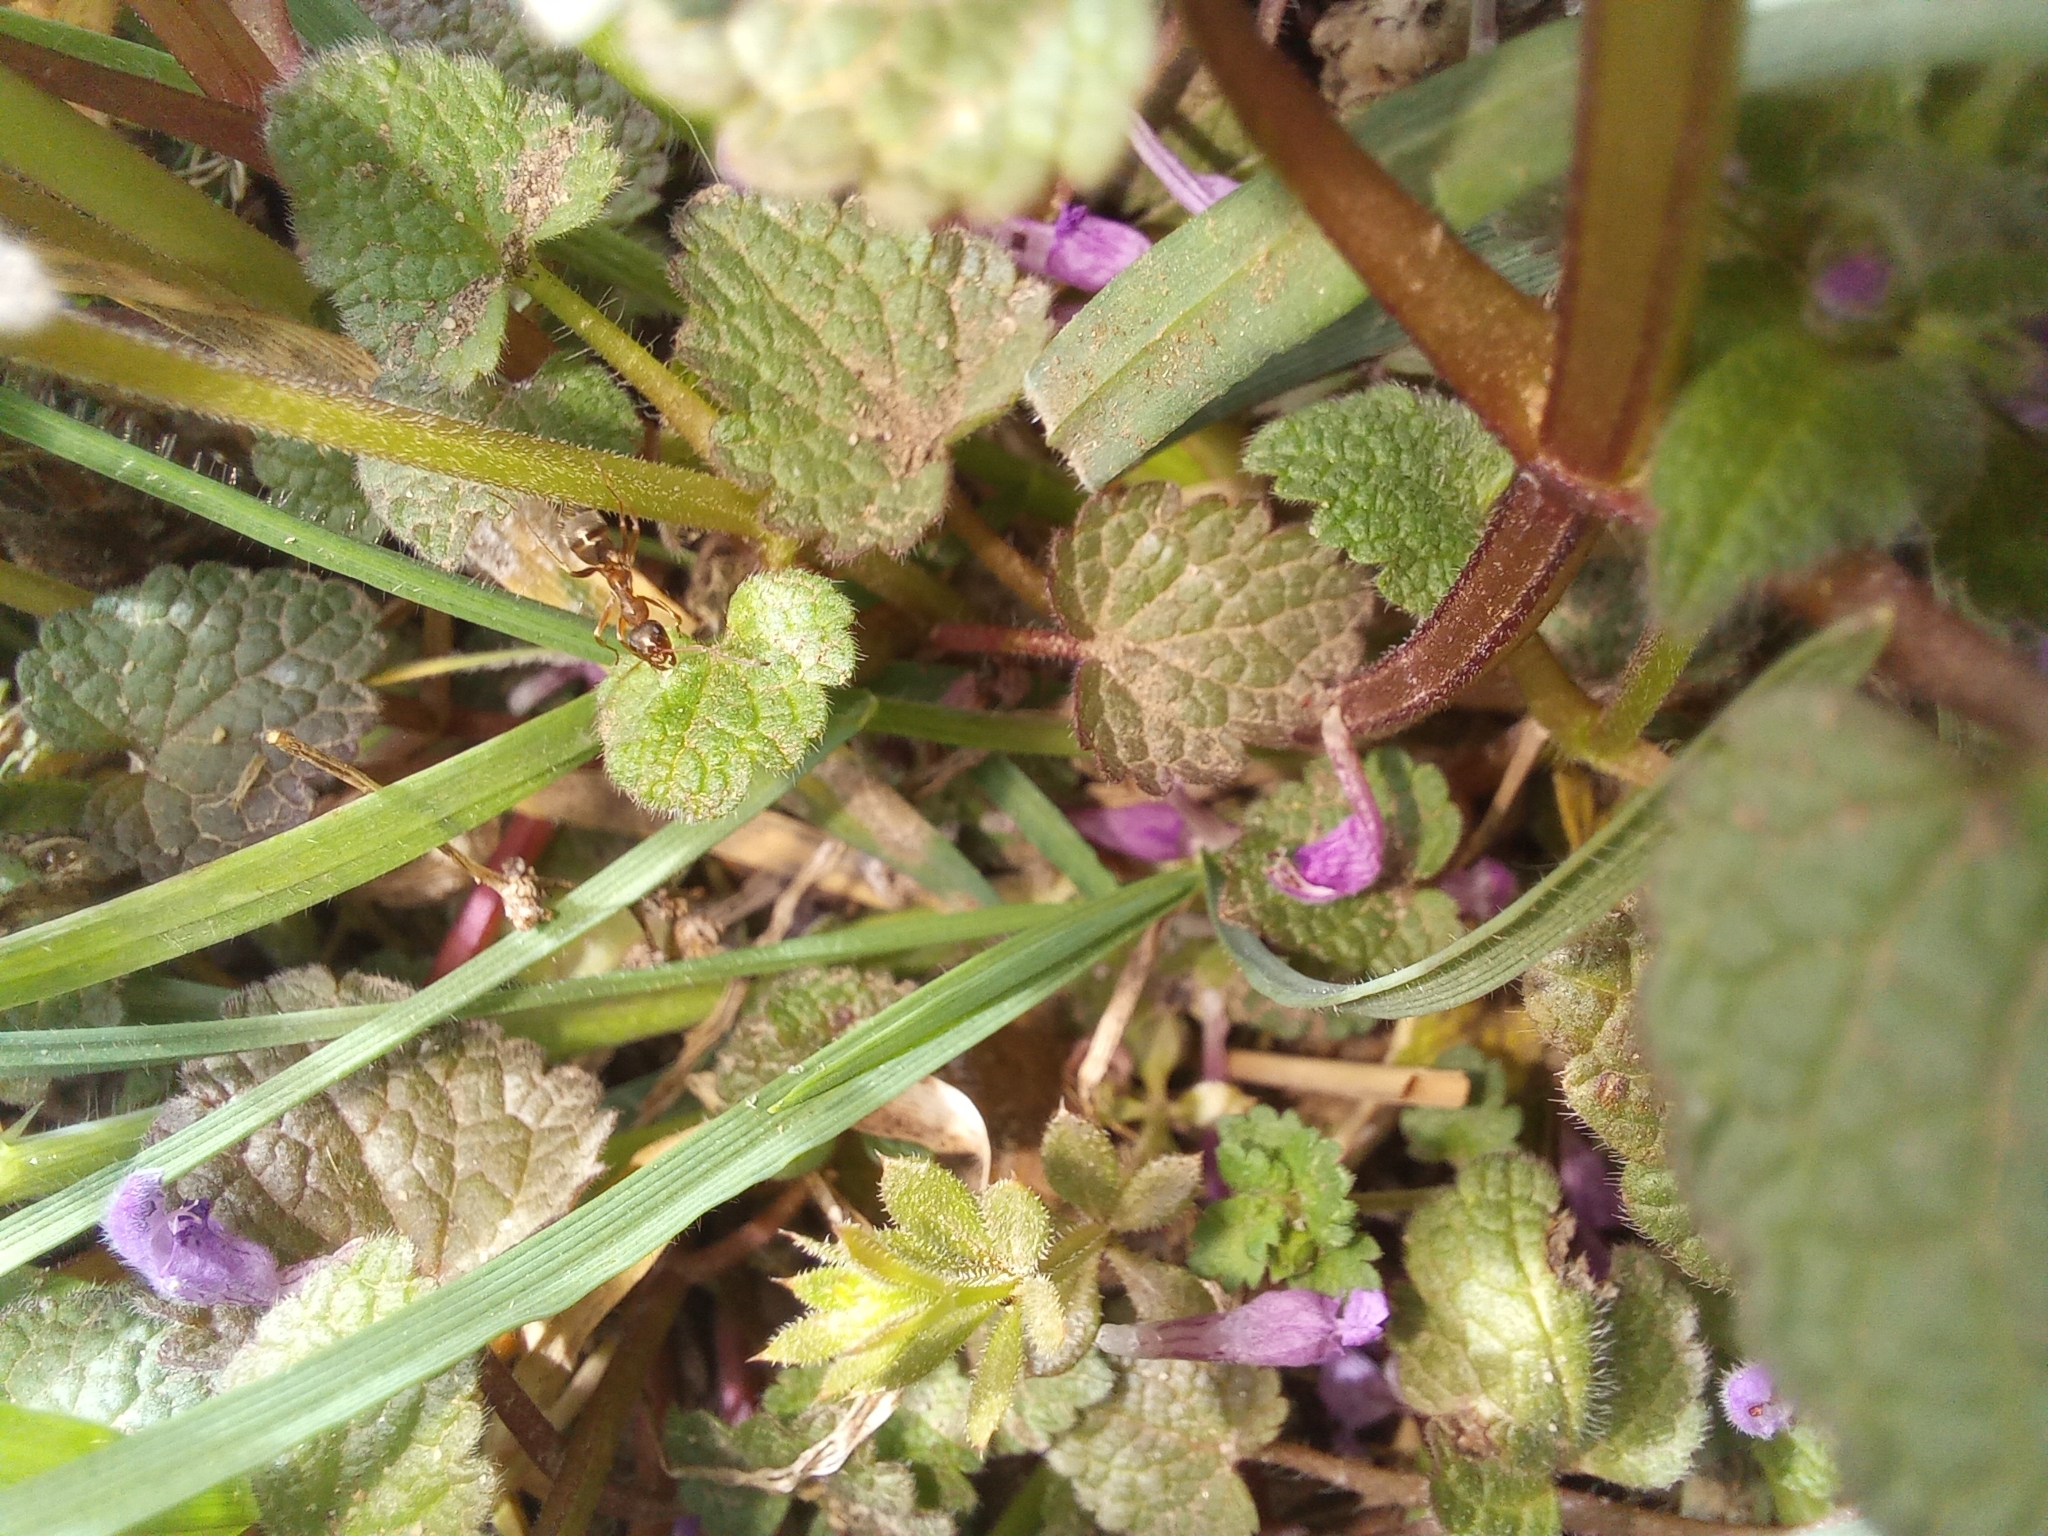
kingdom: Plantae
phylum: Tracheophyta
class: Magnoliopsida
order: Lamiales
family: Lamiaceae
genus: Lamium
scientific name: Lamium purpureum
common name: Red dead-nettle
